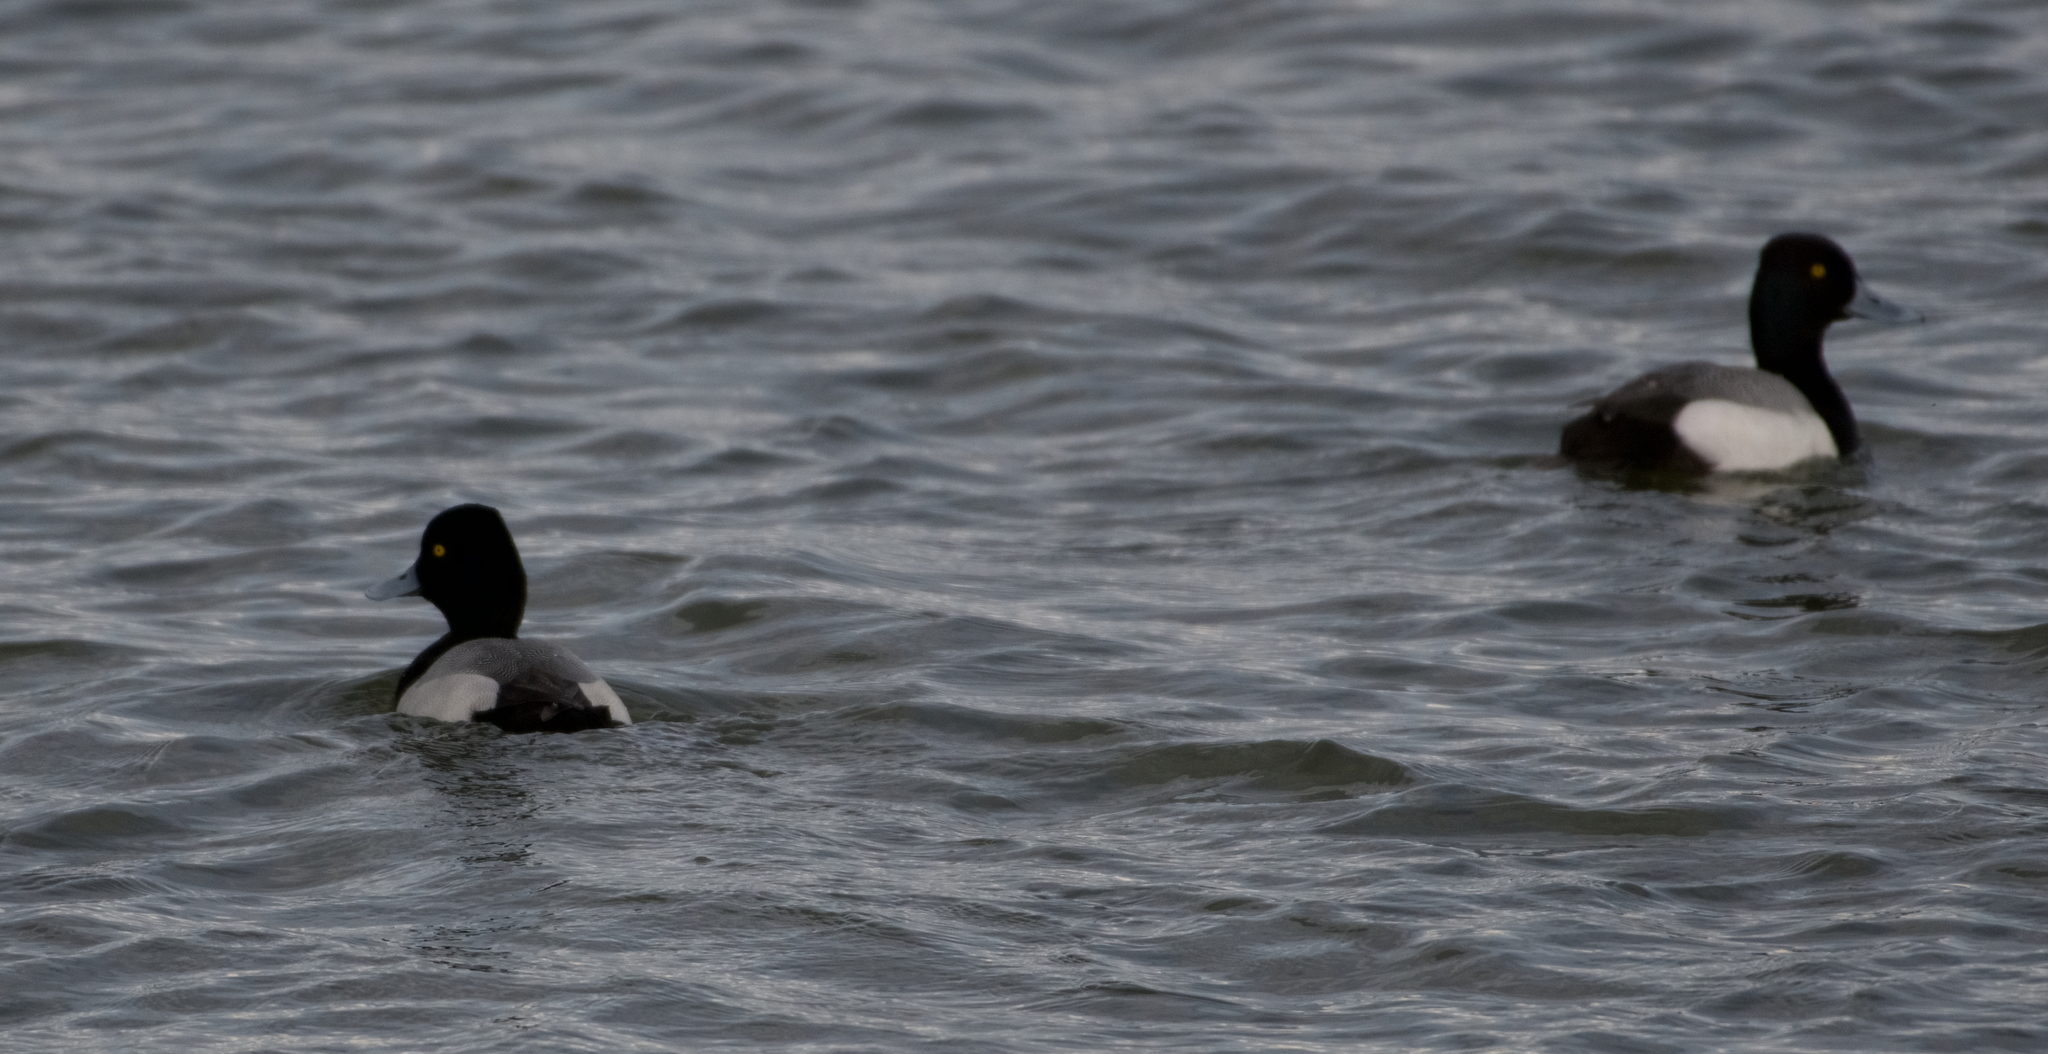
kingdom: Animalia
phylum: Chordata
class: Aves
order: Anseriformes
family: Anatidae
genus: Aythya
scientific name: Aythya affinis
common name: Lesser scaup
